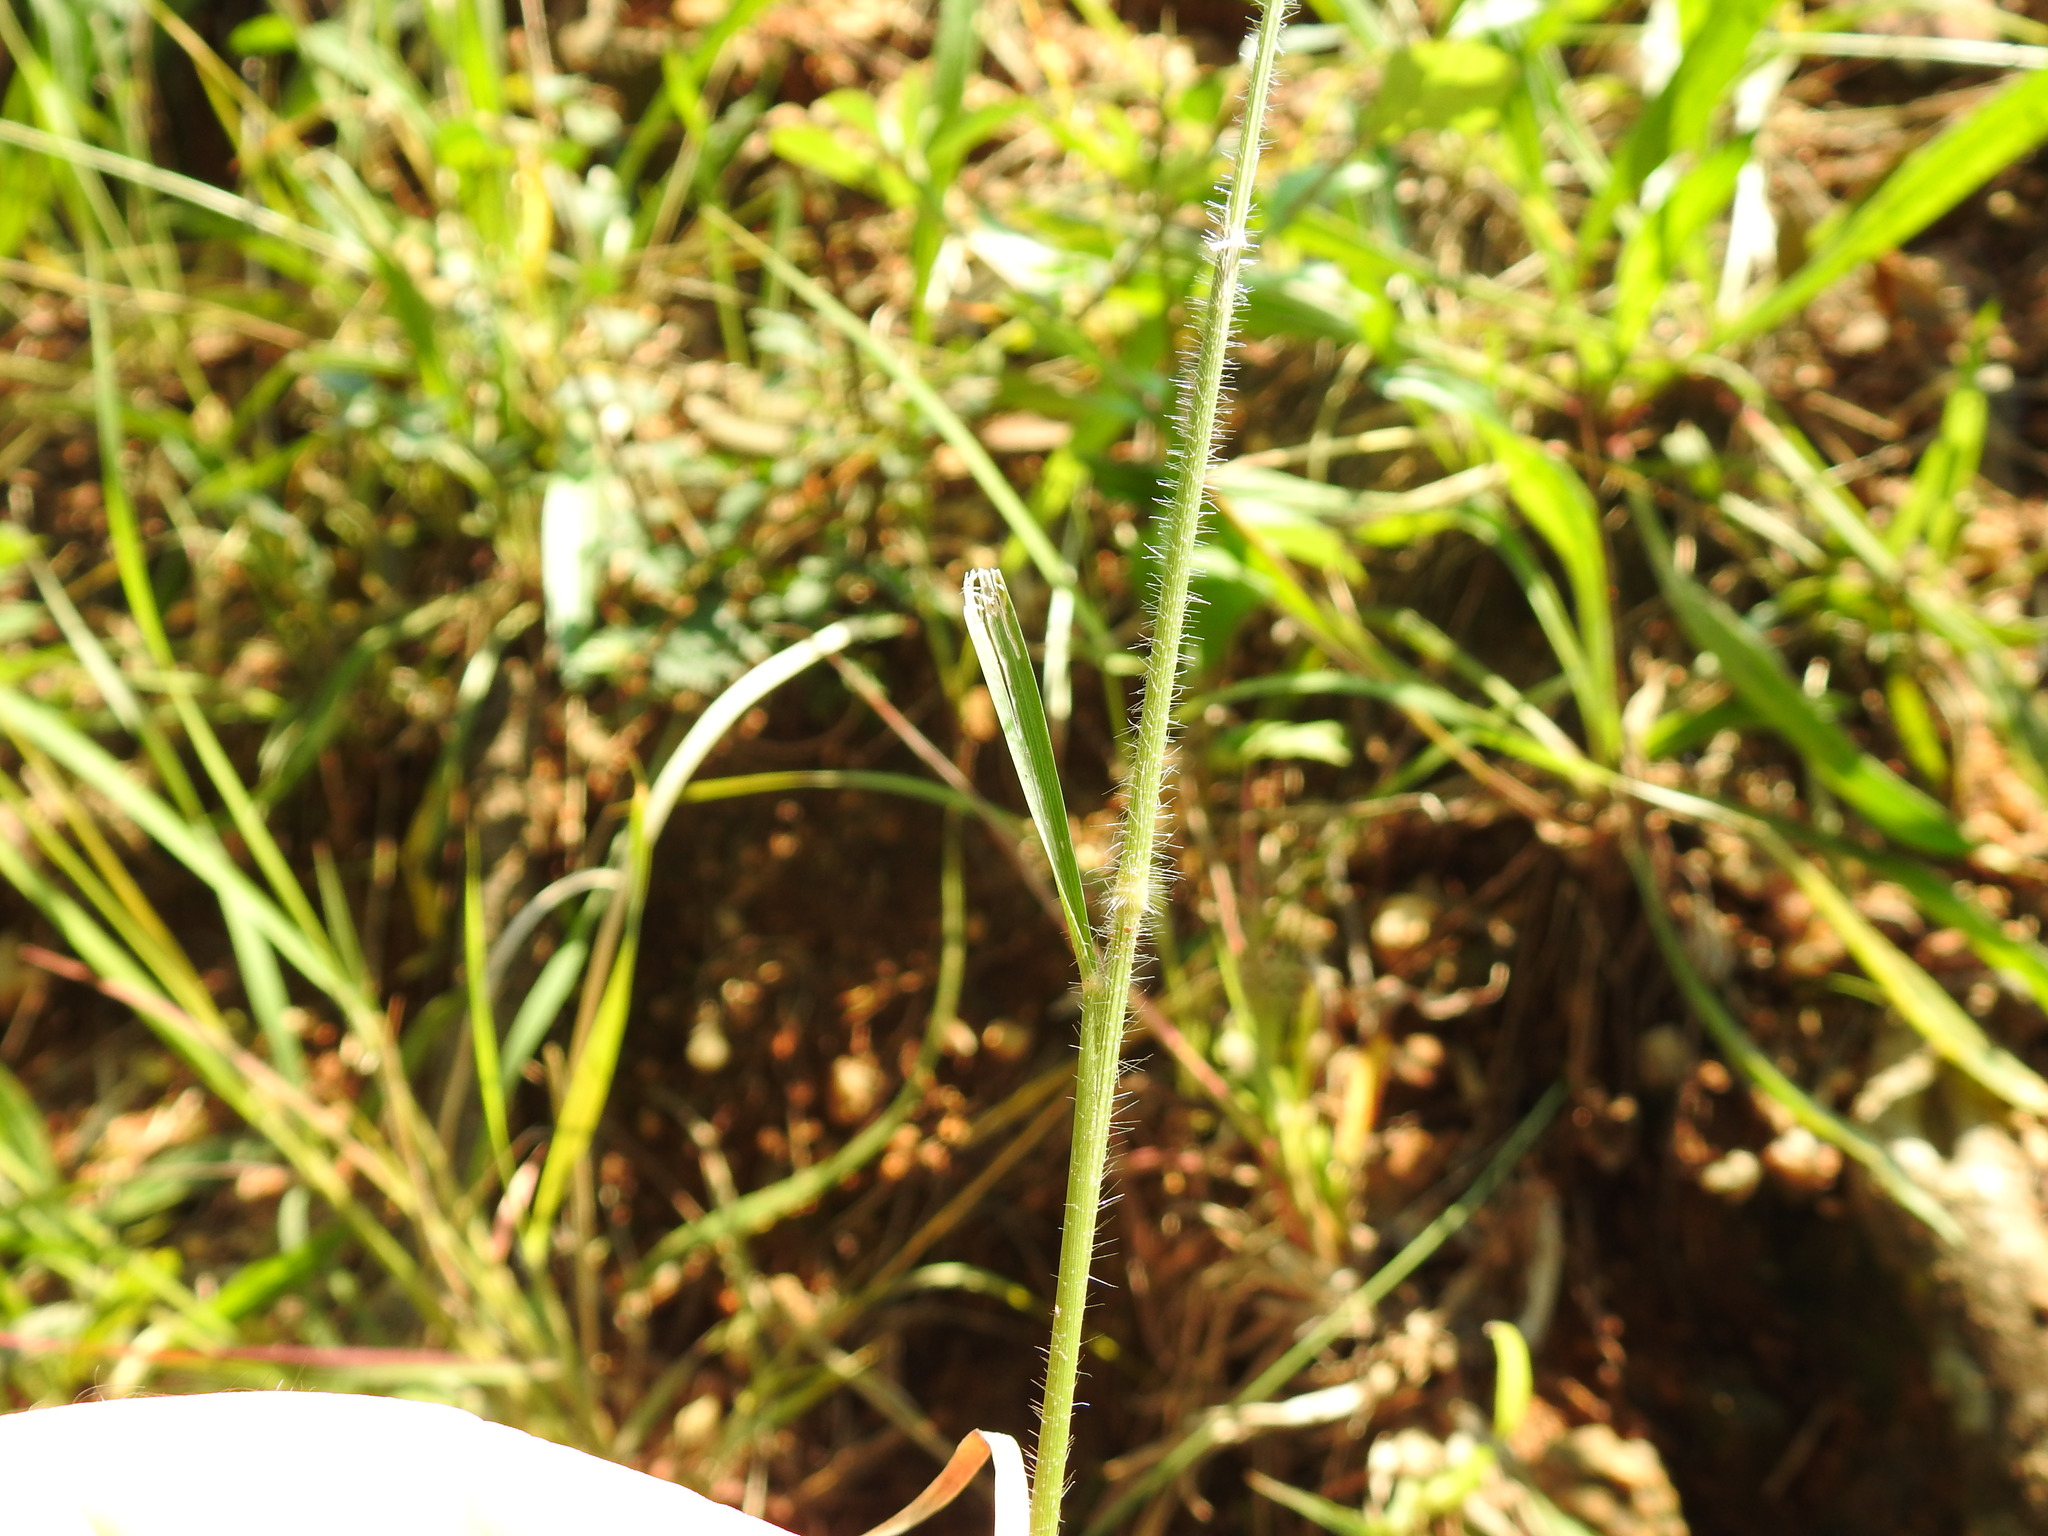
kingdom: Plantae
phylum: Tracheophyta
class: Liliopsida
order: Poales
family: Poaceae
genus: Melinis
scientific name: Melinis repens
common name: Rose natal grass
